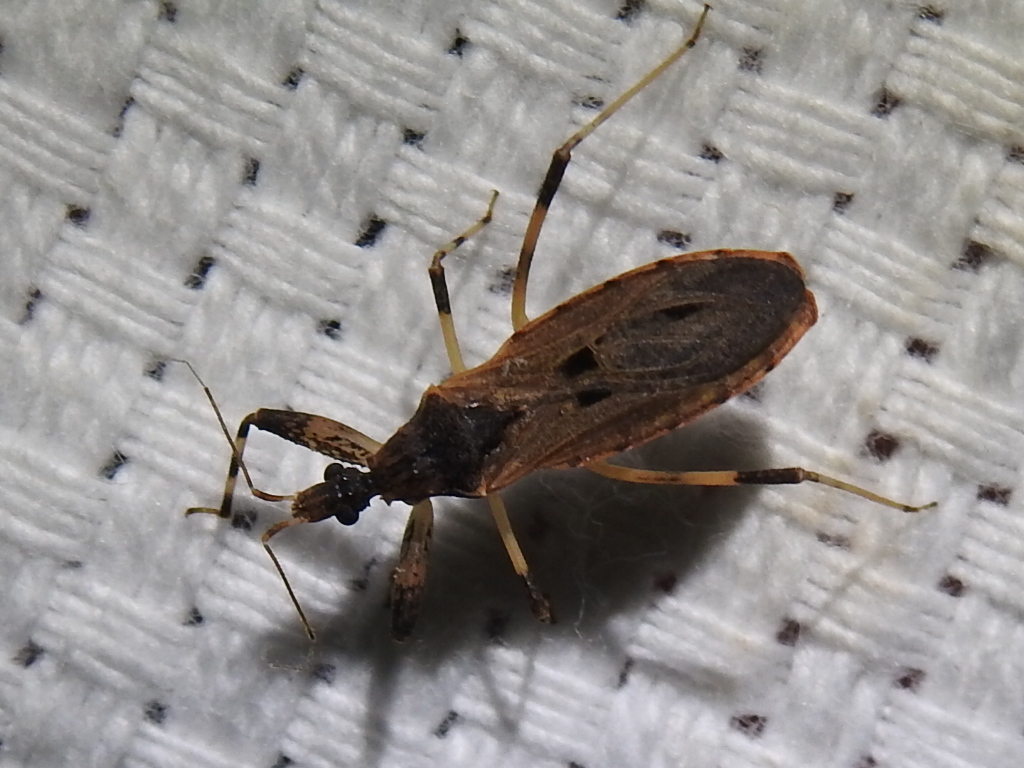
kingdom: Animalia
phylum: Arthropoda
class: Insecta
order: Hemiptera
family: Reduviidae
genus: Oncocephalus
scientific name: Oncocephalus geniculatus
